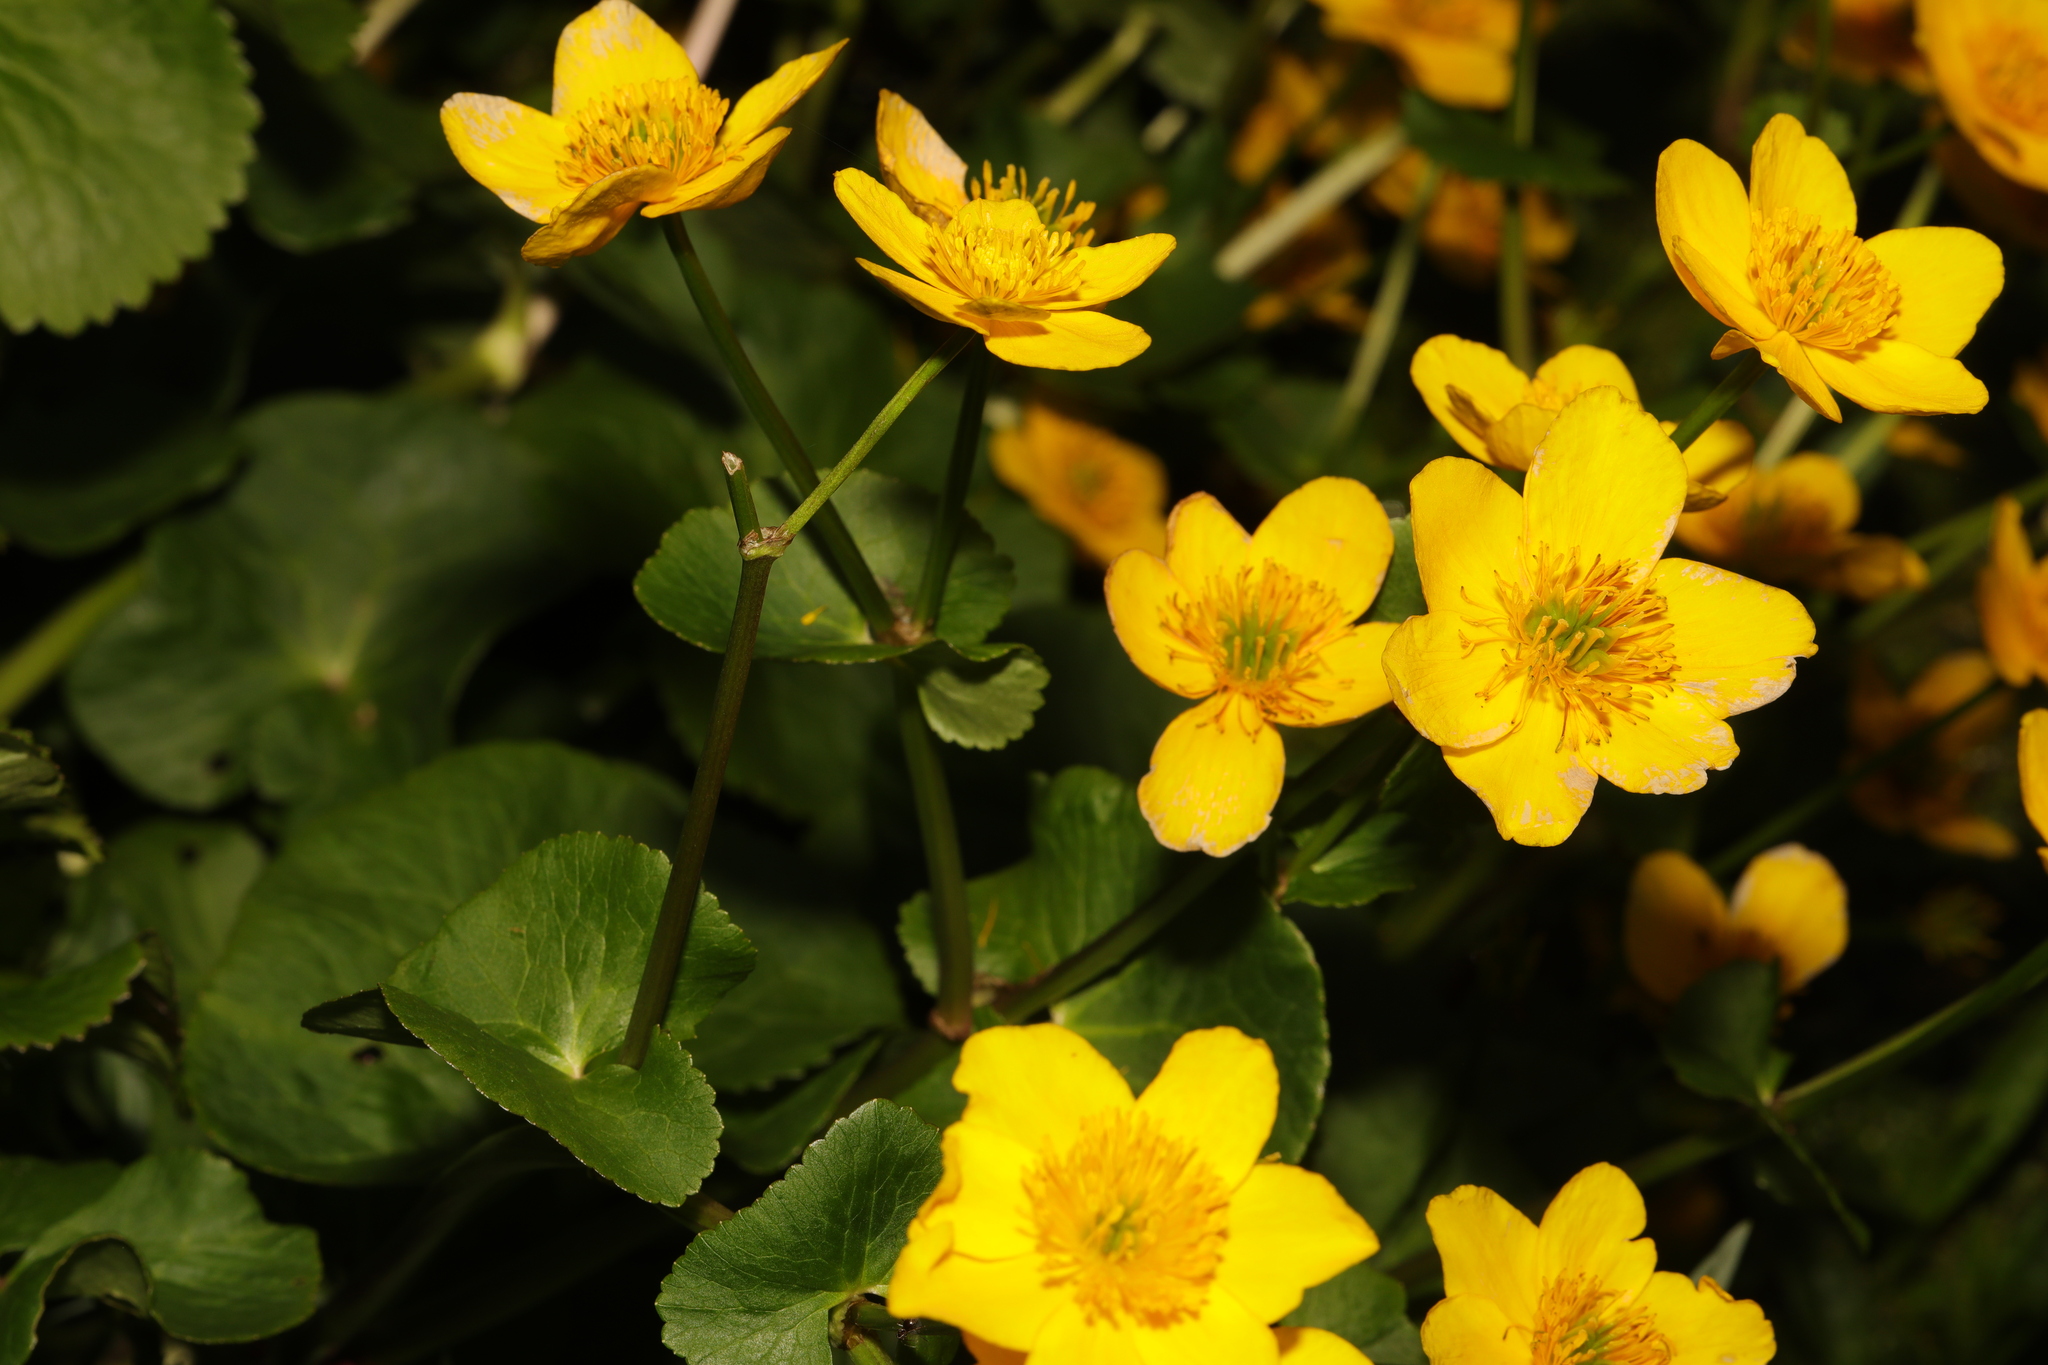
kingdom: Plantae
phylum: Tracheophyta
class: Magnoliopsida
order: Ranunculales
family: Ranunculaceae
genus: Caltha
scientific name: Caltha palustris
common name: Marsh marigold
